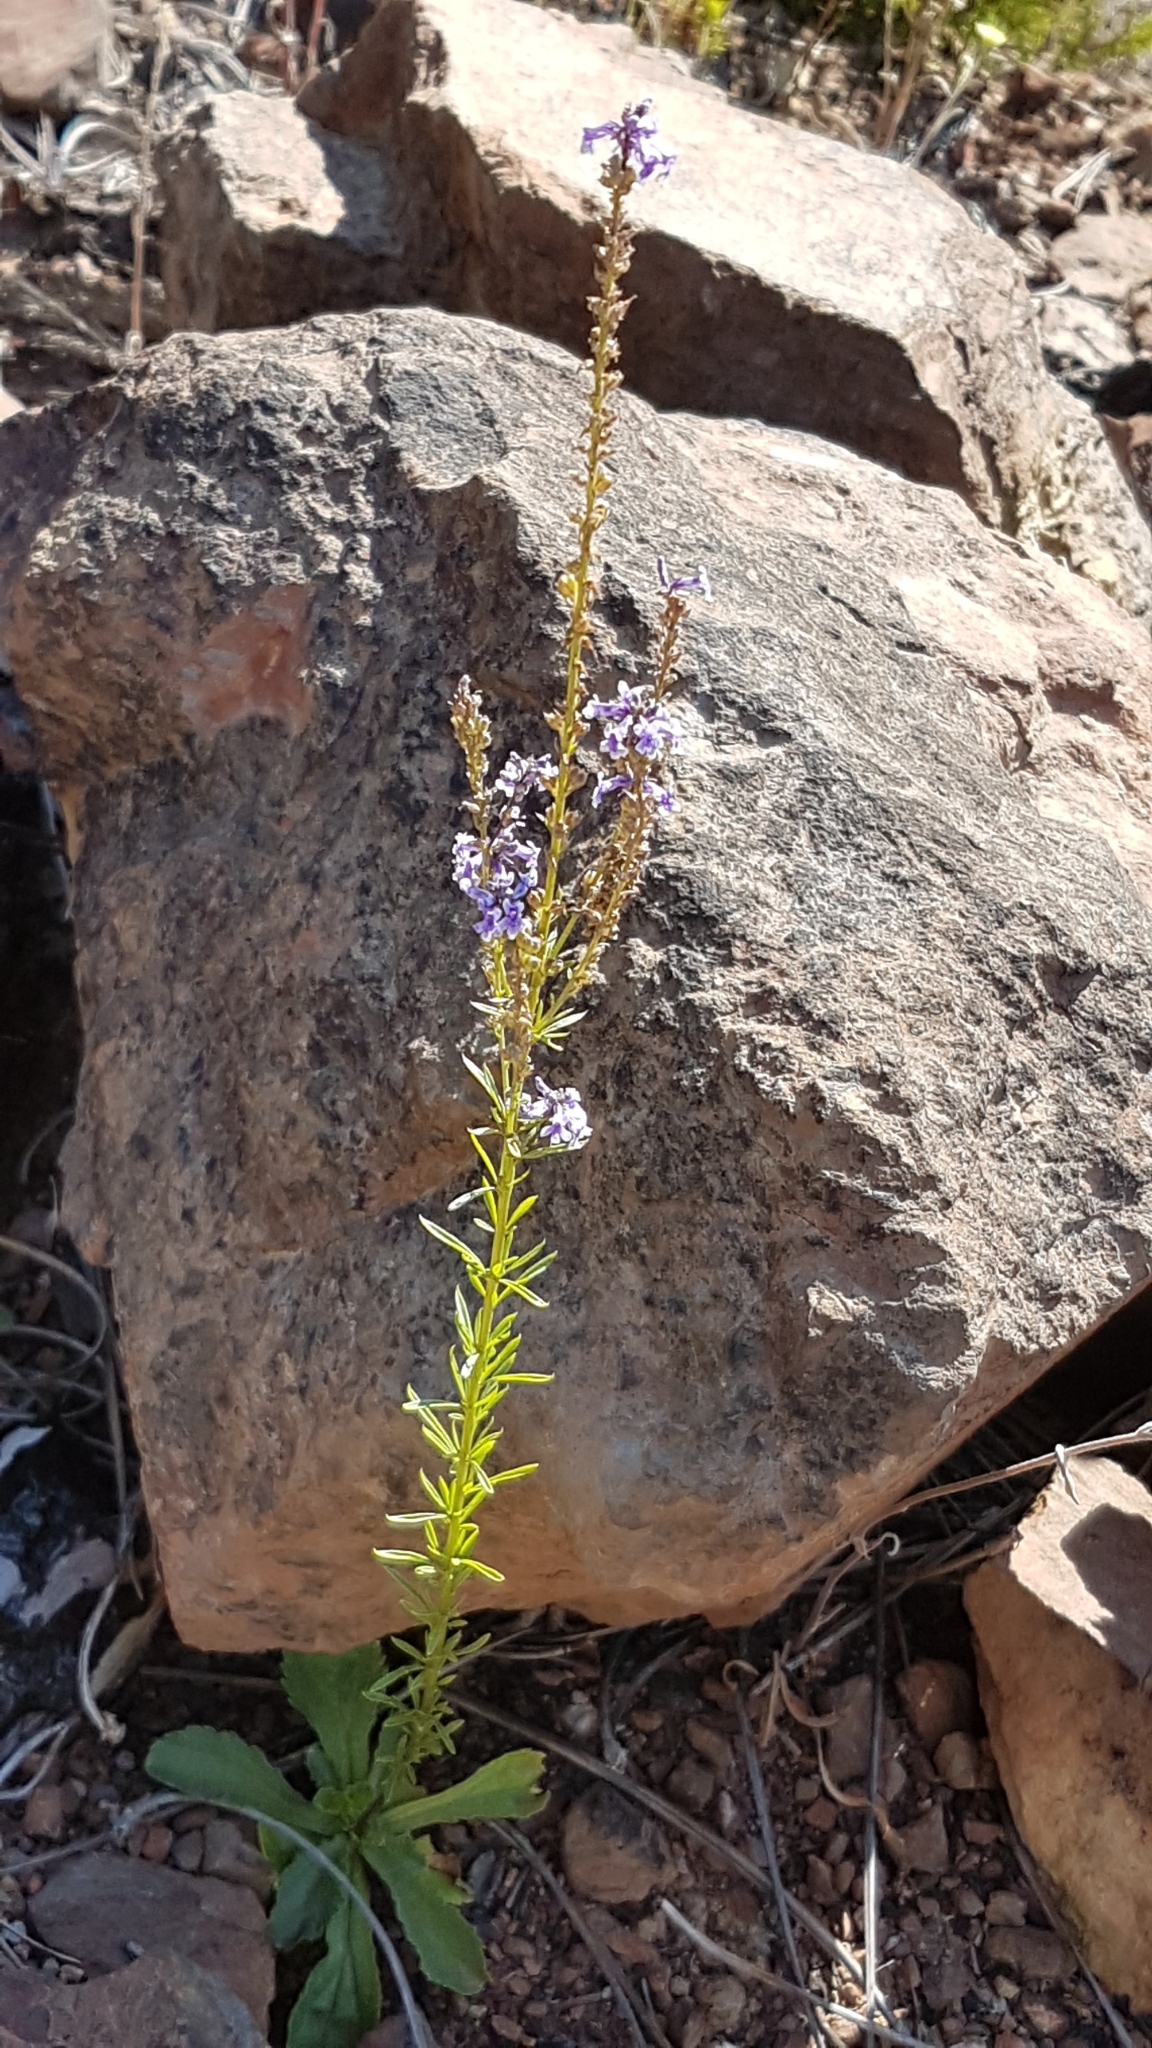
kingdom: Plantae
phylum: Tracheophyta
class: Magnoliopsida
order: Lamiales
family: Plantaginaceae
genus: Anarrhinum
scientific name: Anarrhinum bellidifolium
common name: Daisy-leaved toadflax
